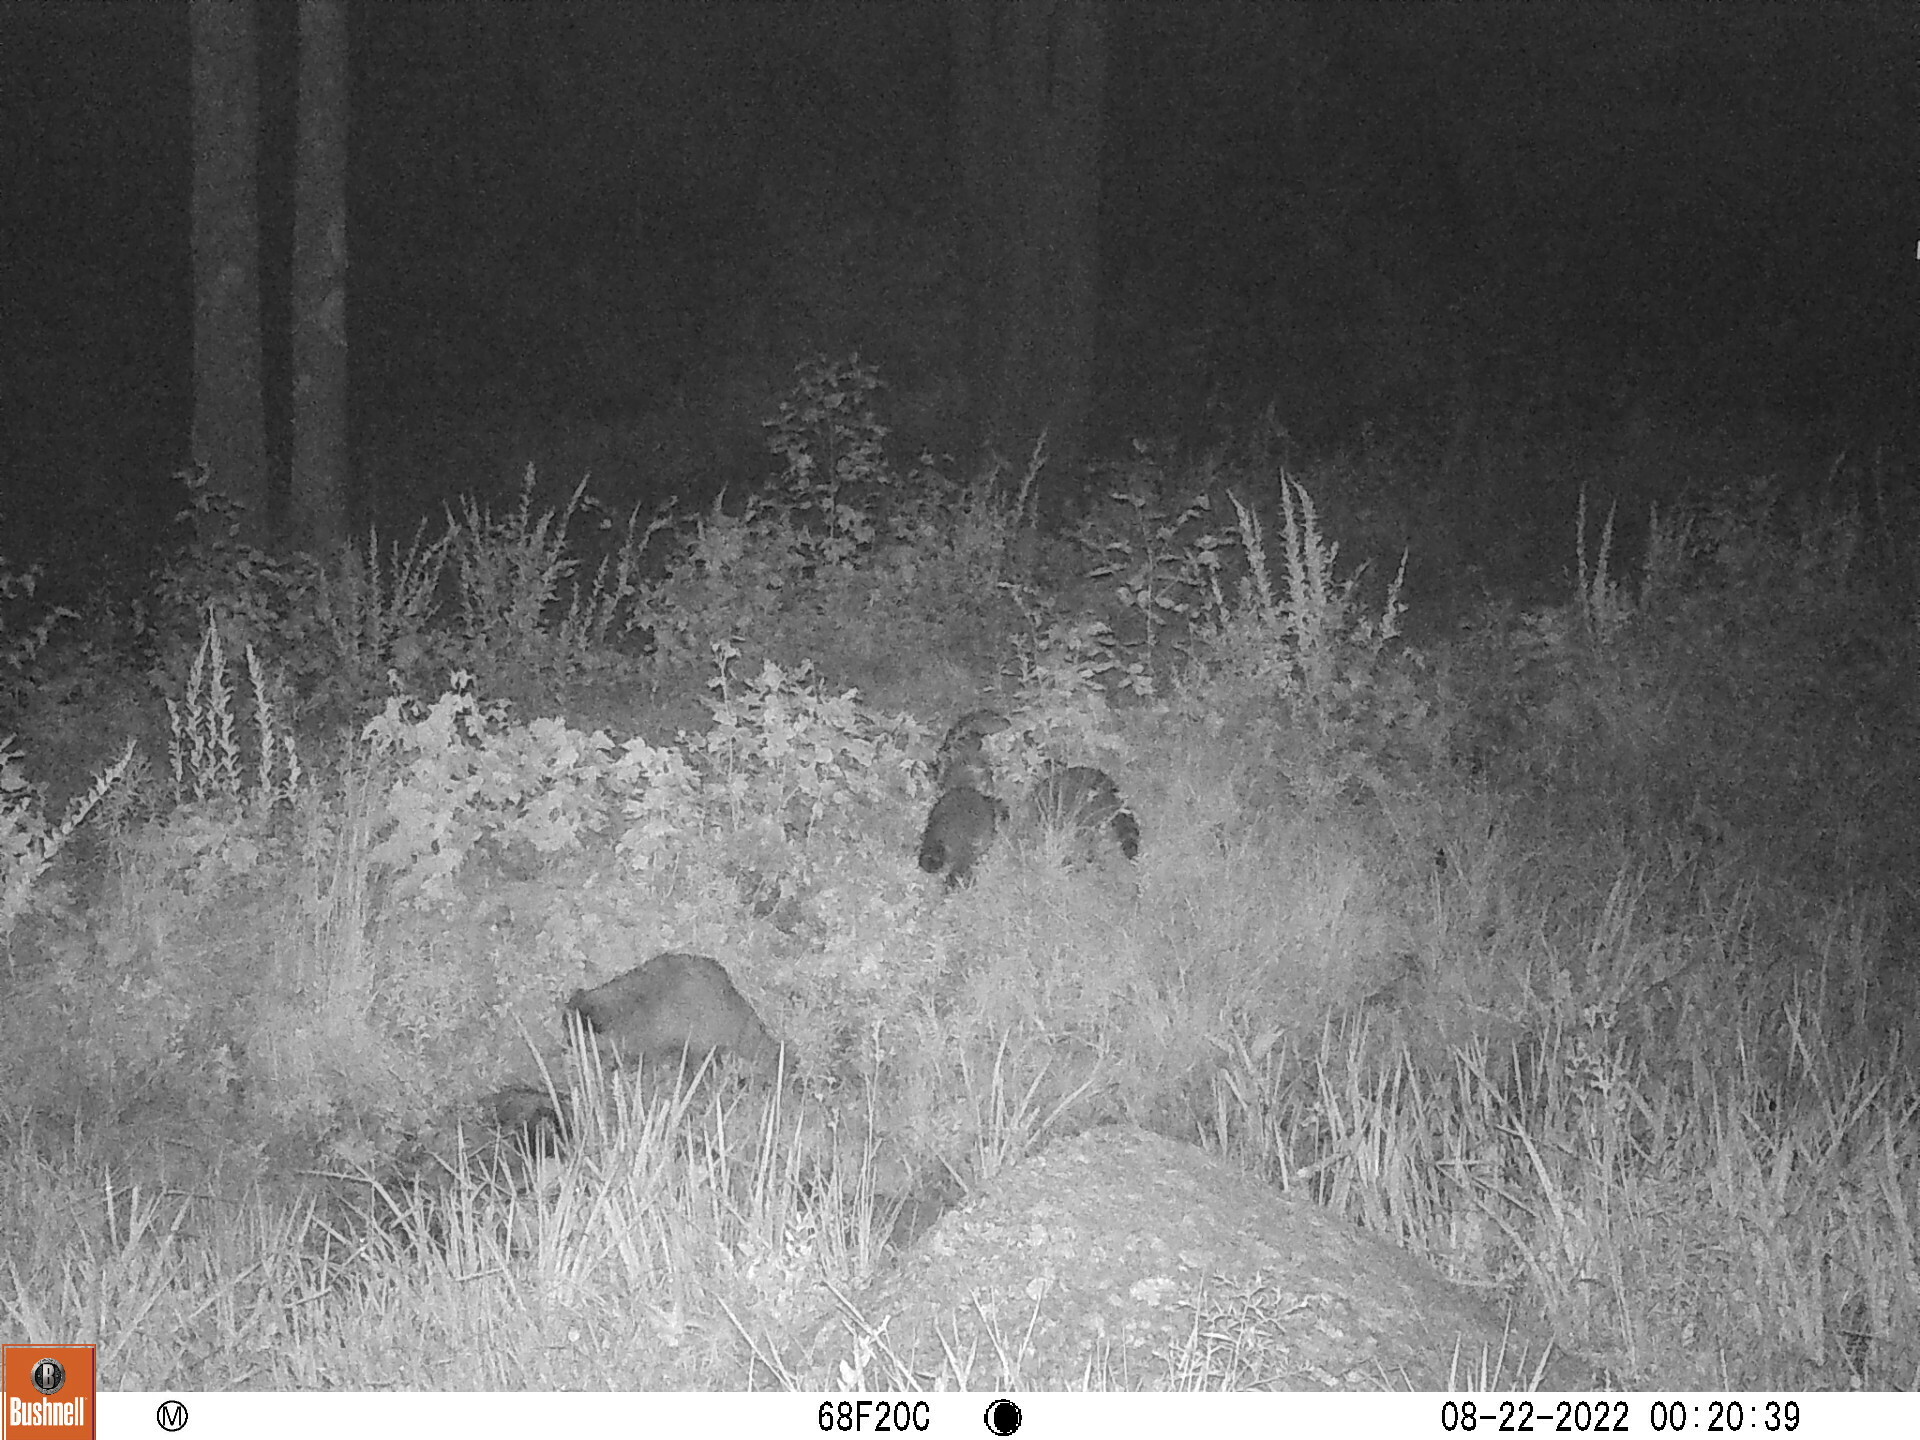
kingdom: Animalia
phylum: Chordata
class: Mammalia
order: Carnivora
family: Procyonidae
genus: Procyon
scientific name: Procyon lotor
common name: Raccoon
